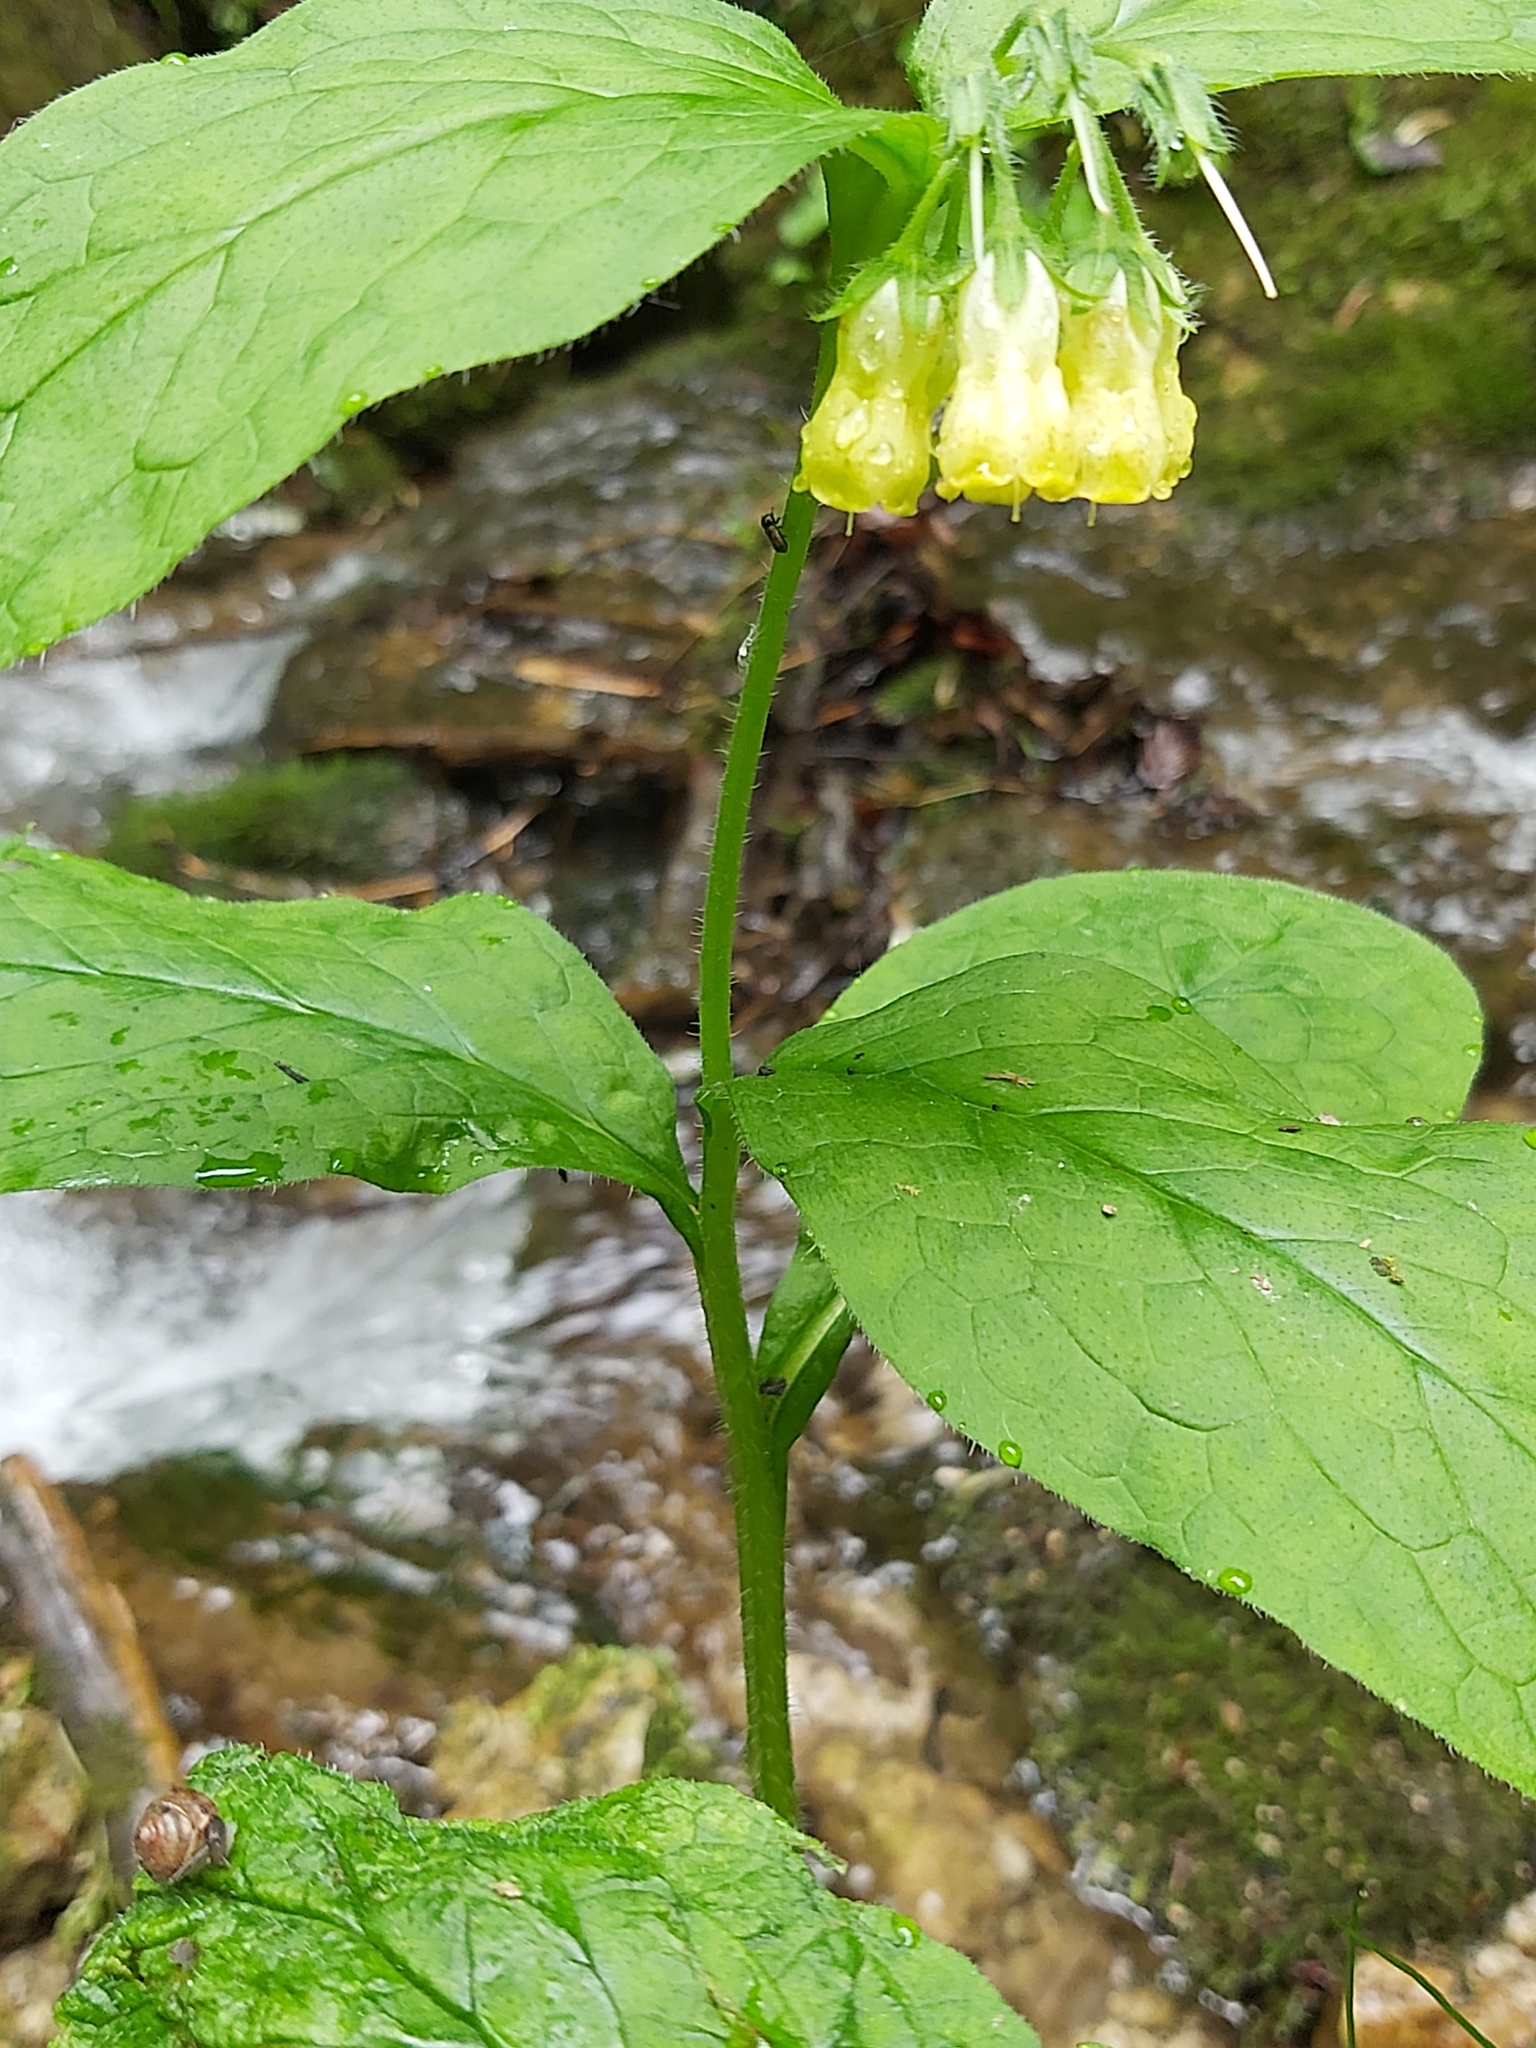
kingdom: Plantae
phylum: Tracheophyta
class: Magnoliopsida
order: Boraginales
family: Boraginaceae
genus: Symphytum
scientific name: Symphytum tuberosum
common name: Tuberous comfrey
